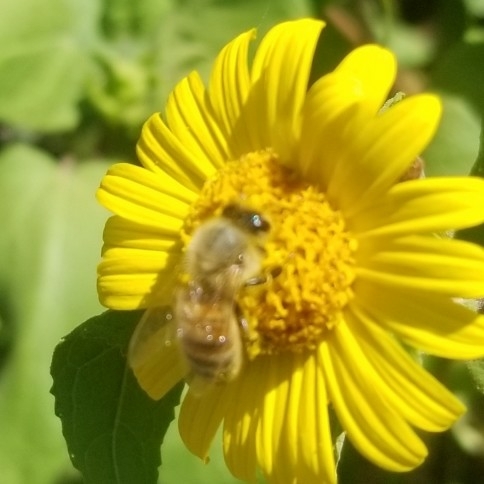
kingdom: Animalia
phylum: Arthropoda
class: Insecta
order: Hymenoptera
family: Apidae
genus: Apis
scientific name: Apis mellifera
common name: Honey bee
